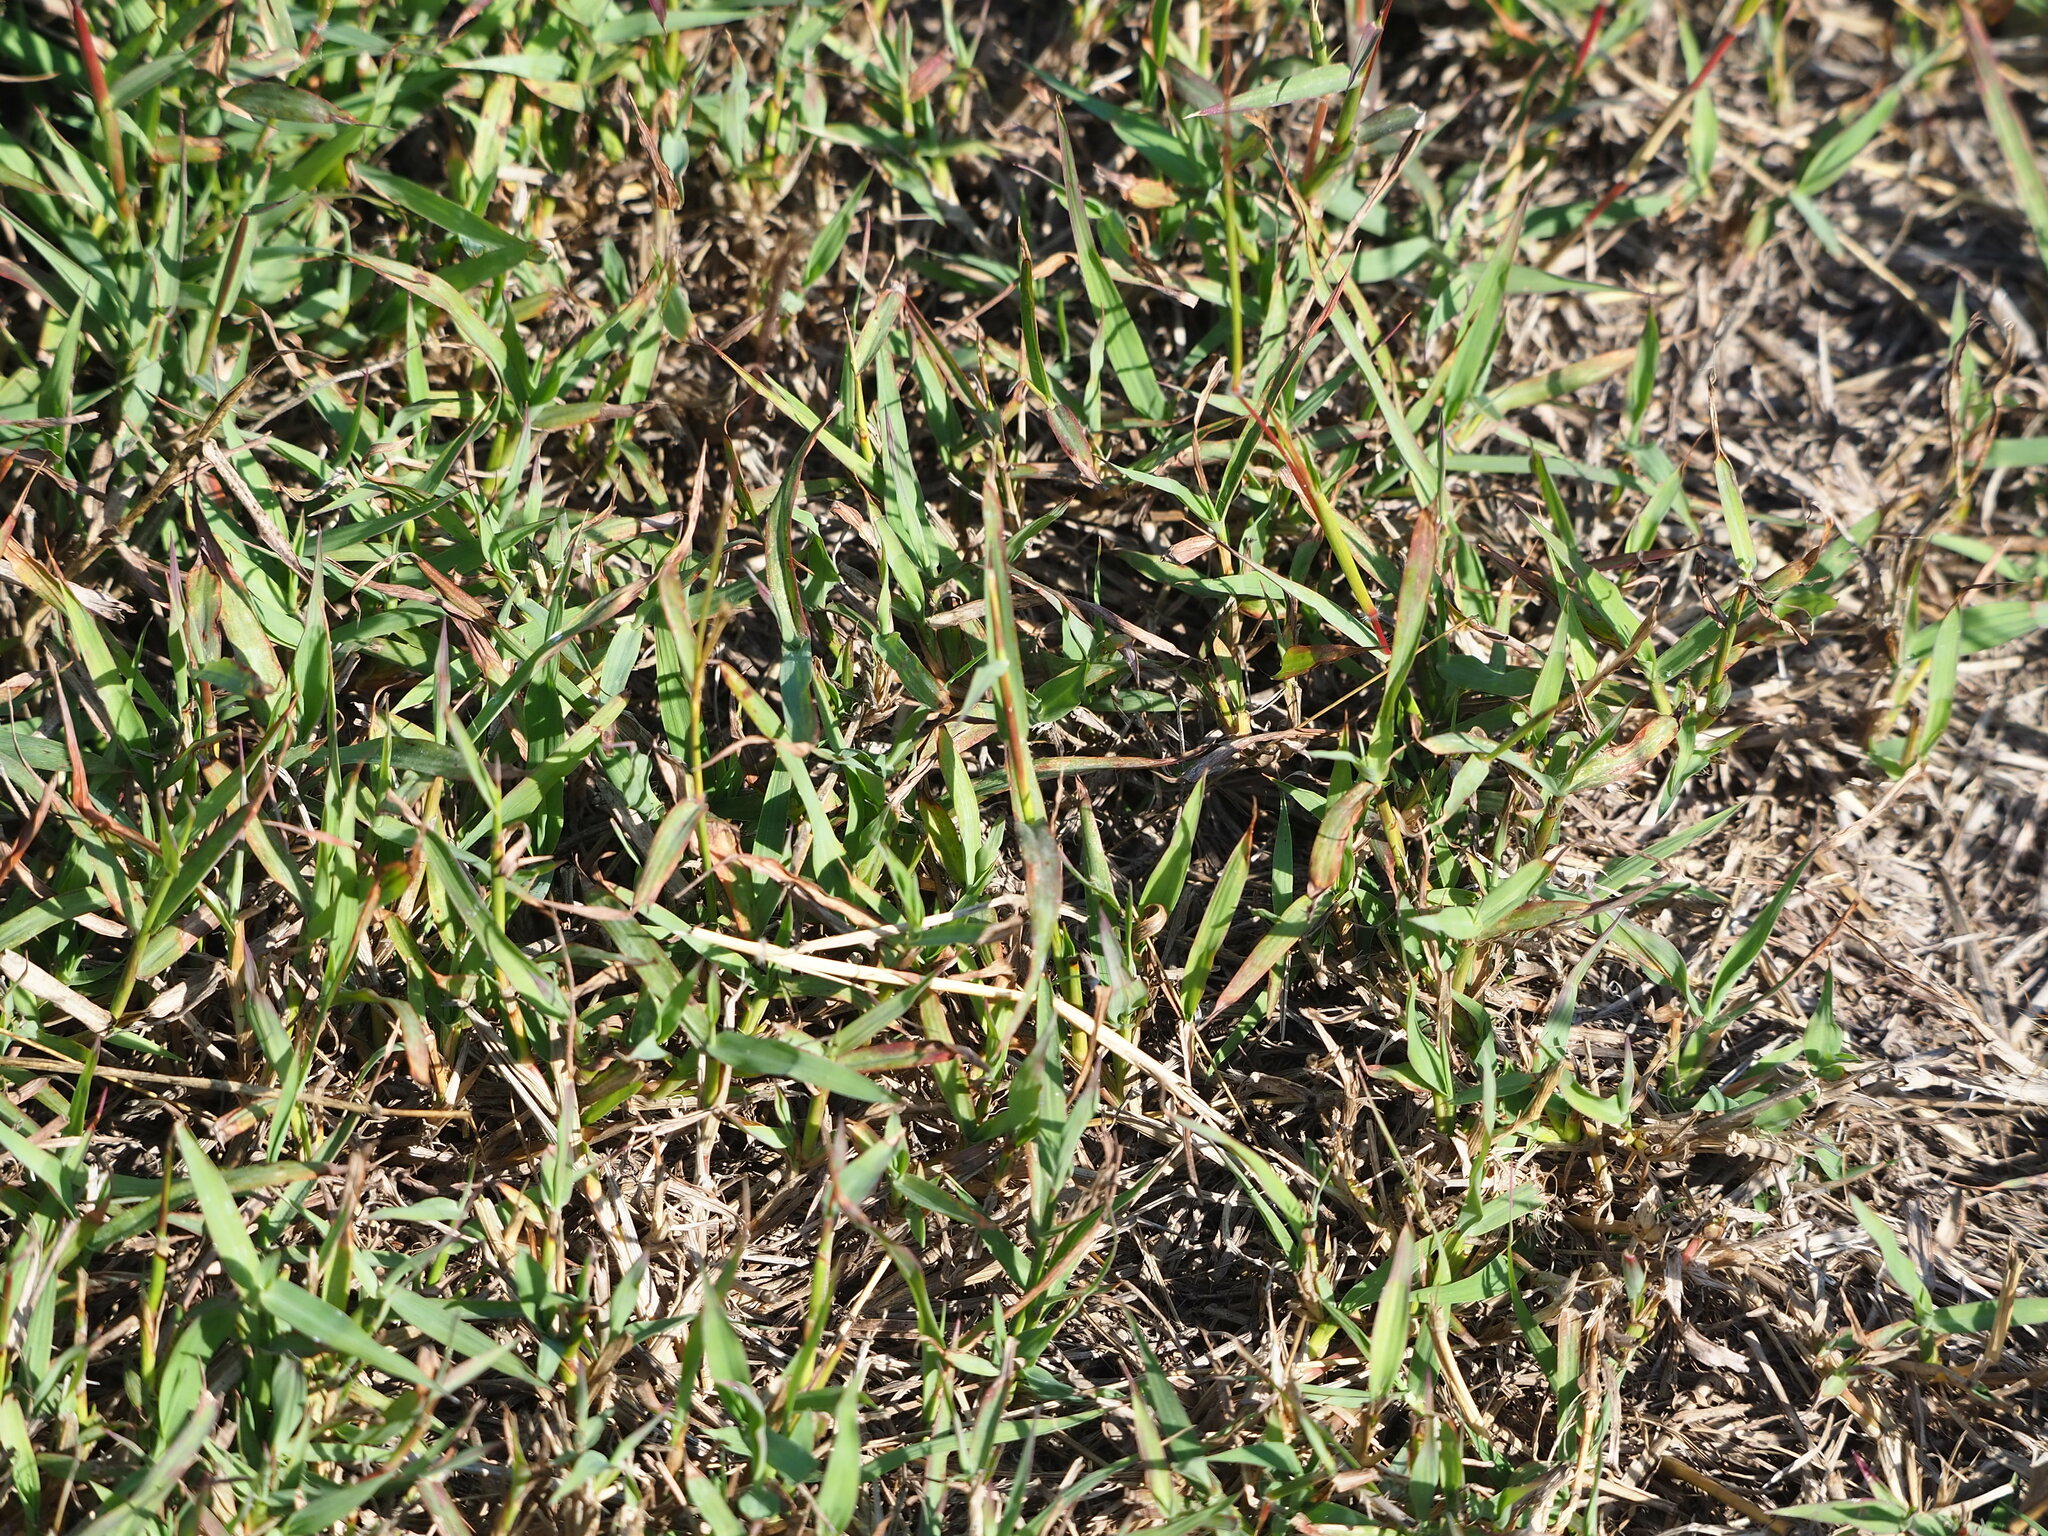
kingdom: Plantae
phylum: Tracheophyta
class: Liliopsida
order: Poales
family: Poaceae
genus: Dichanthium
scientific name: Dichanthium annulatum
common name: Kleberg's bluestem
